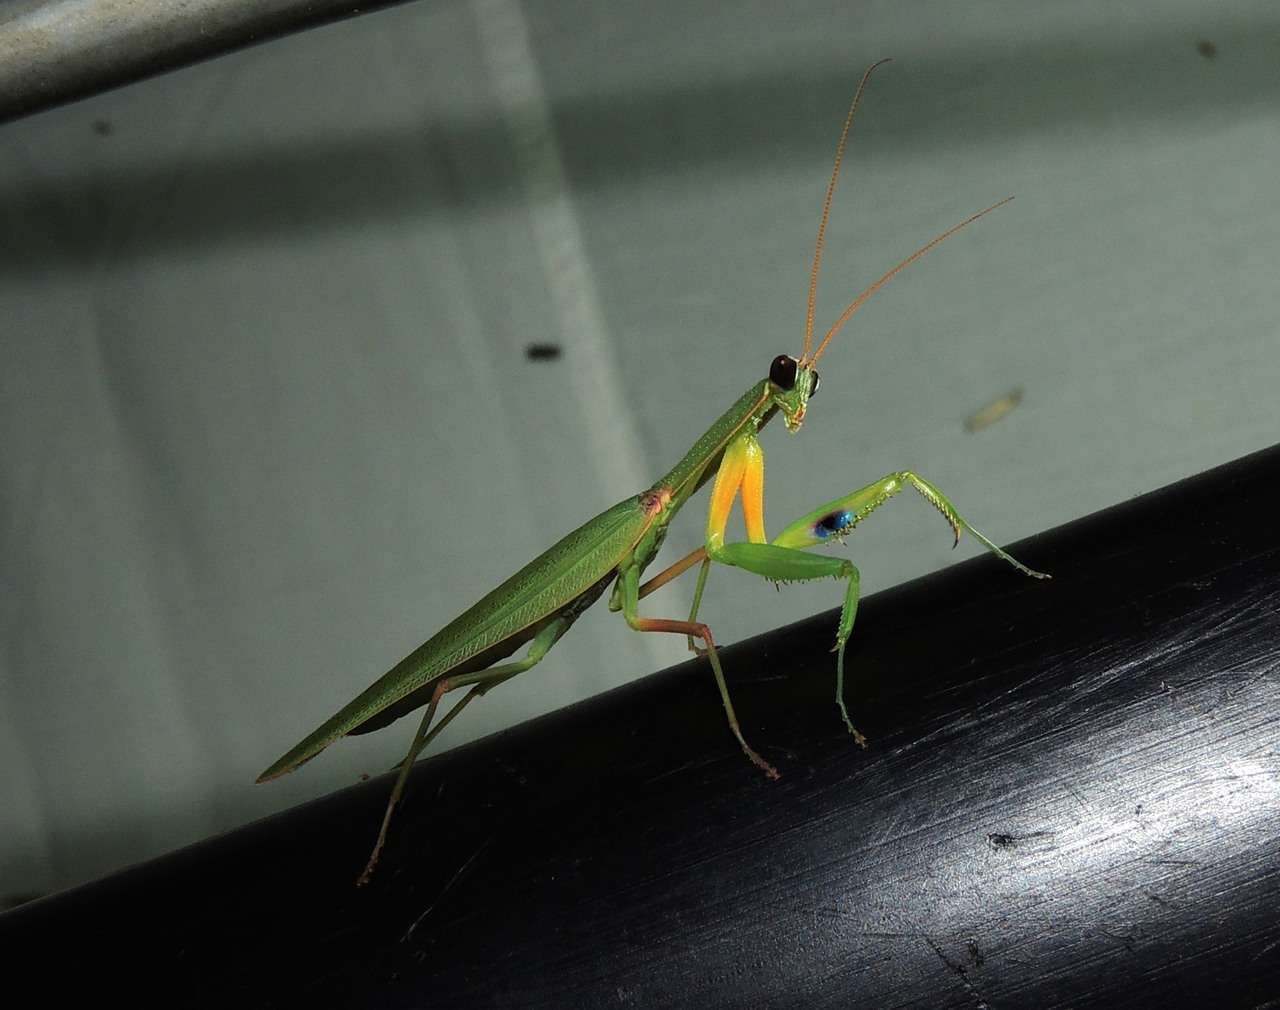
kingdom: Animalia
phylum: Arthropoda
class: Insecta
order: Mantodea
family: Mantidae
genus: Orthodera
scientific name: Orthodera ministralis
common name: Mantis
